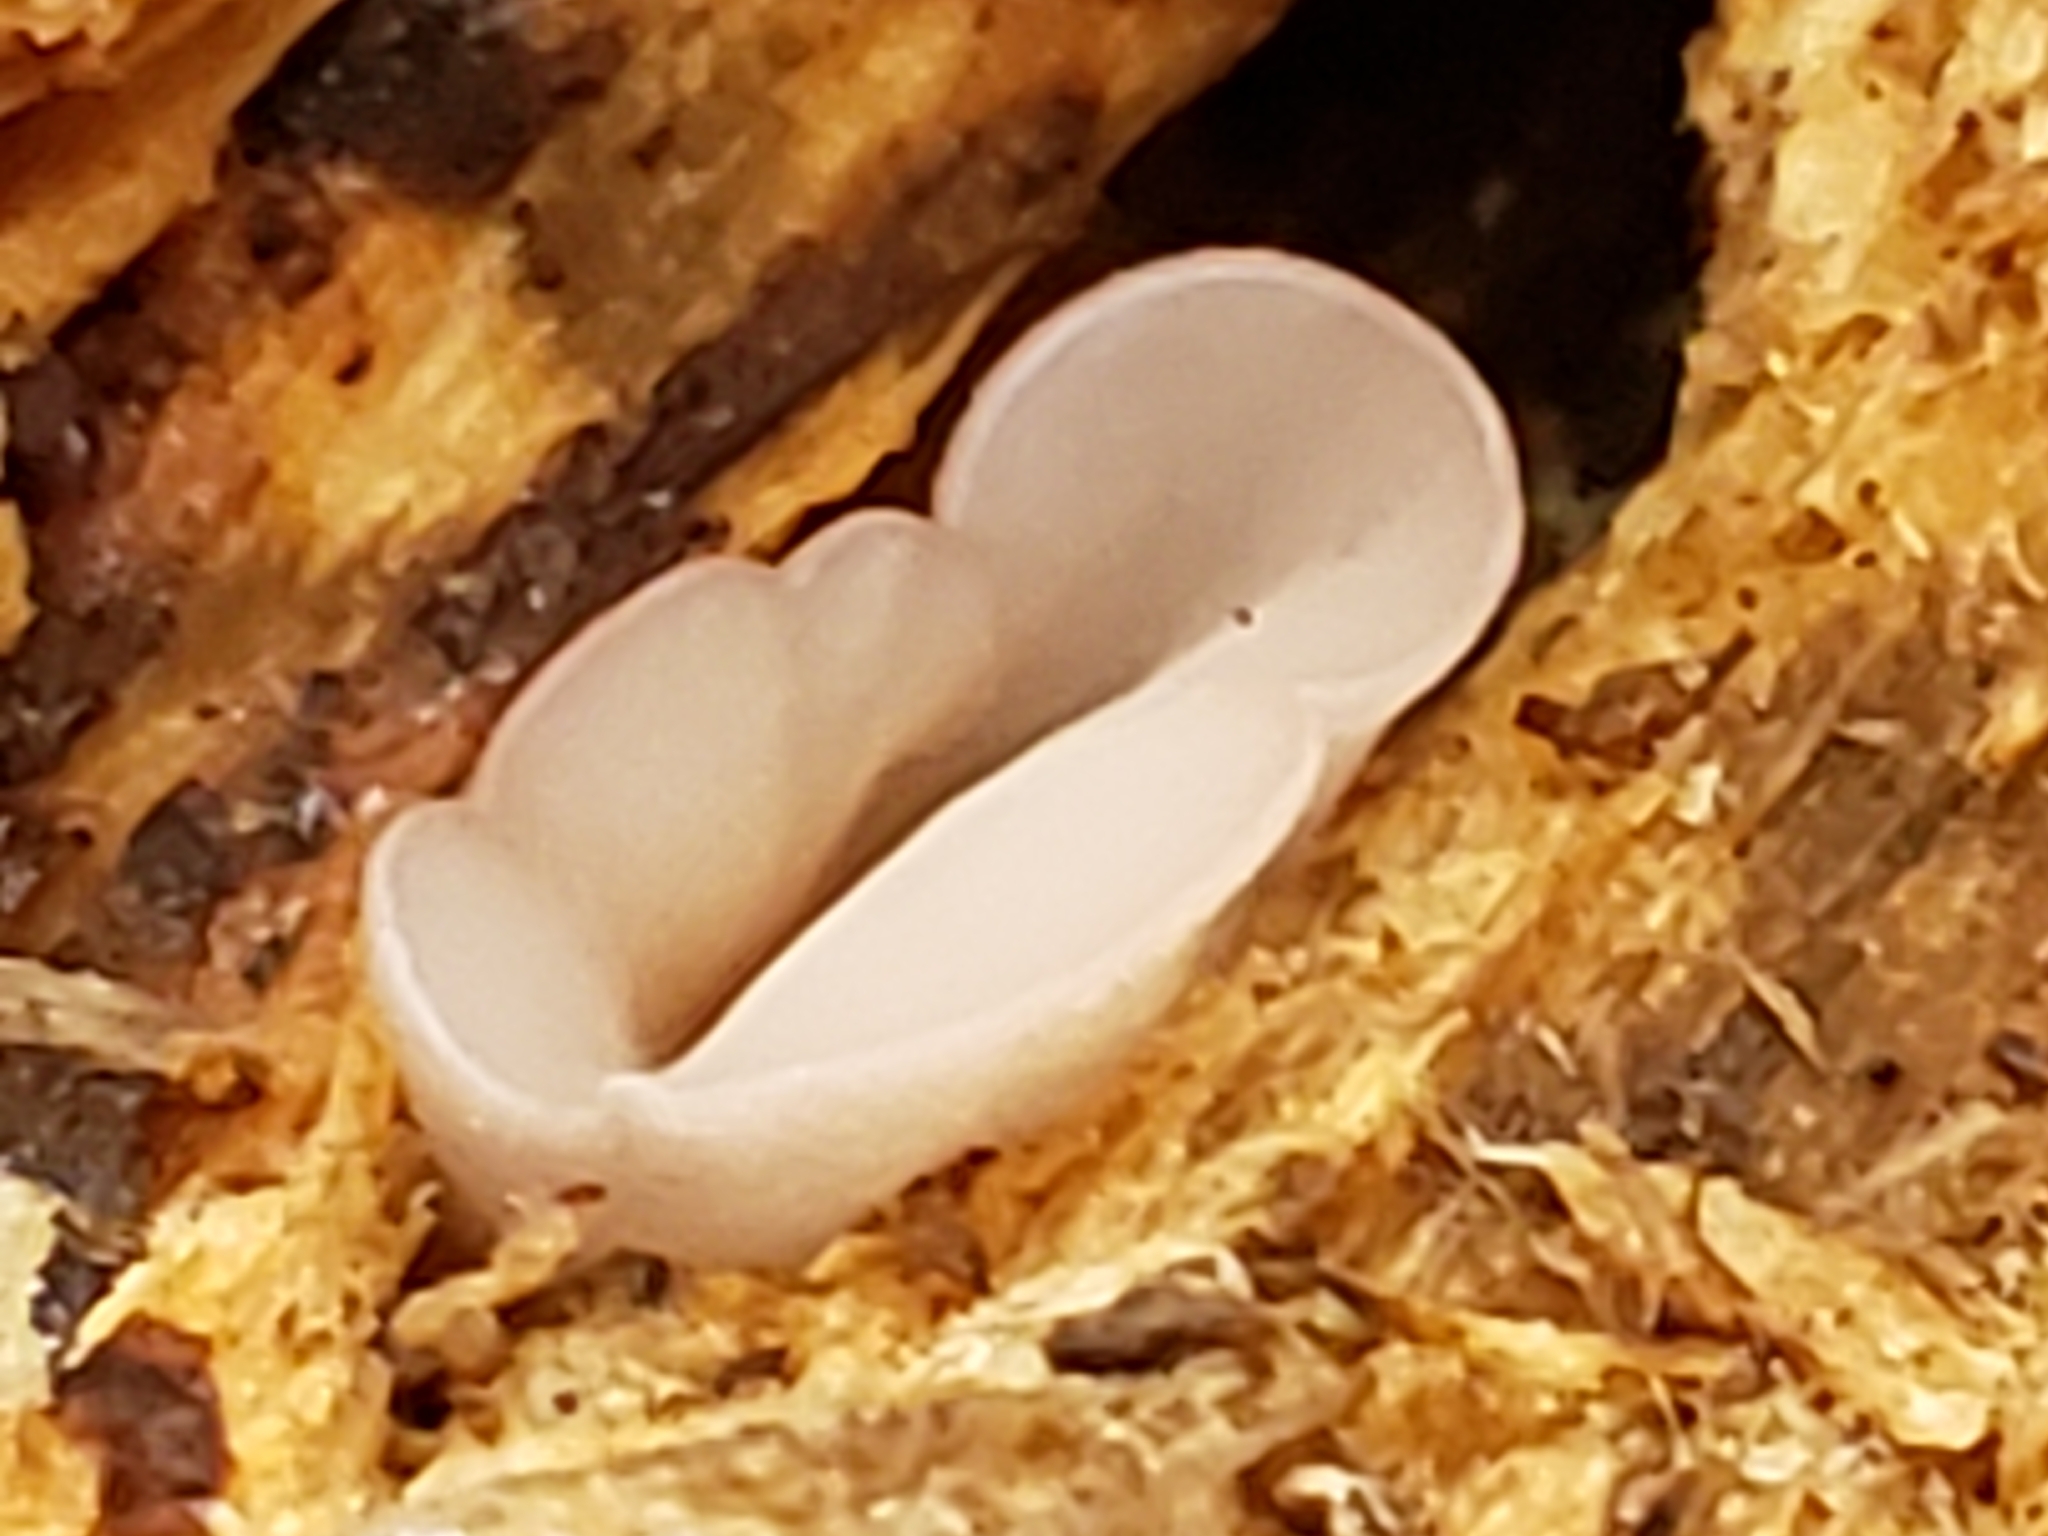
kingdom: Fungi
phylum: Ascomycota
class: Leotiomycetes
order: Helotiales
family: Gelatinodiscaceae
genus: Neobulgaria
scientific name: Neobulgaria pura
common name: Beech jelly-disc
